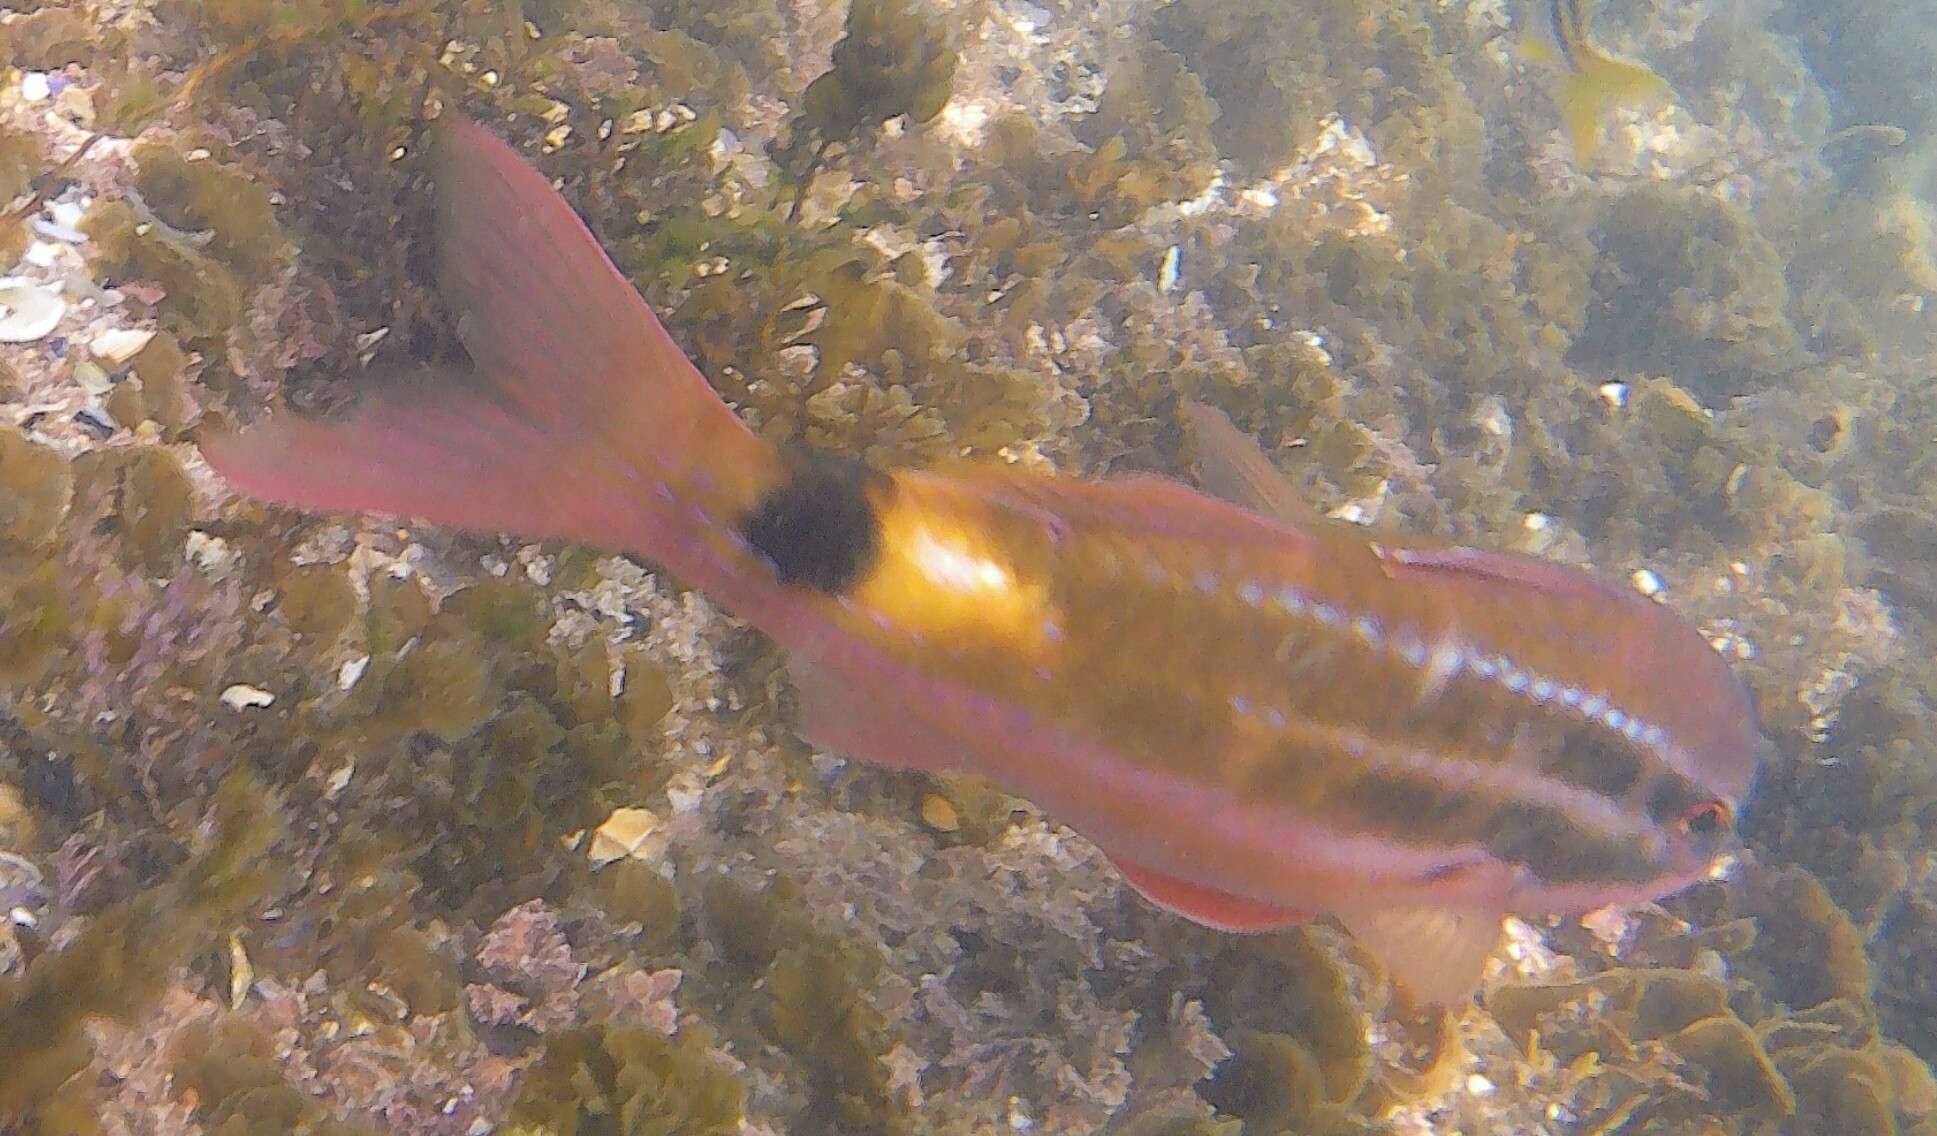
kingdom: Animalia
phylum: Chordata
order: Perciformes
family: Mullidae
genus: Parupeneus
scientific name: Parupeneus spilurus
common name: Blackspot goatfish
